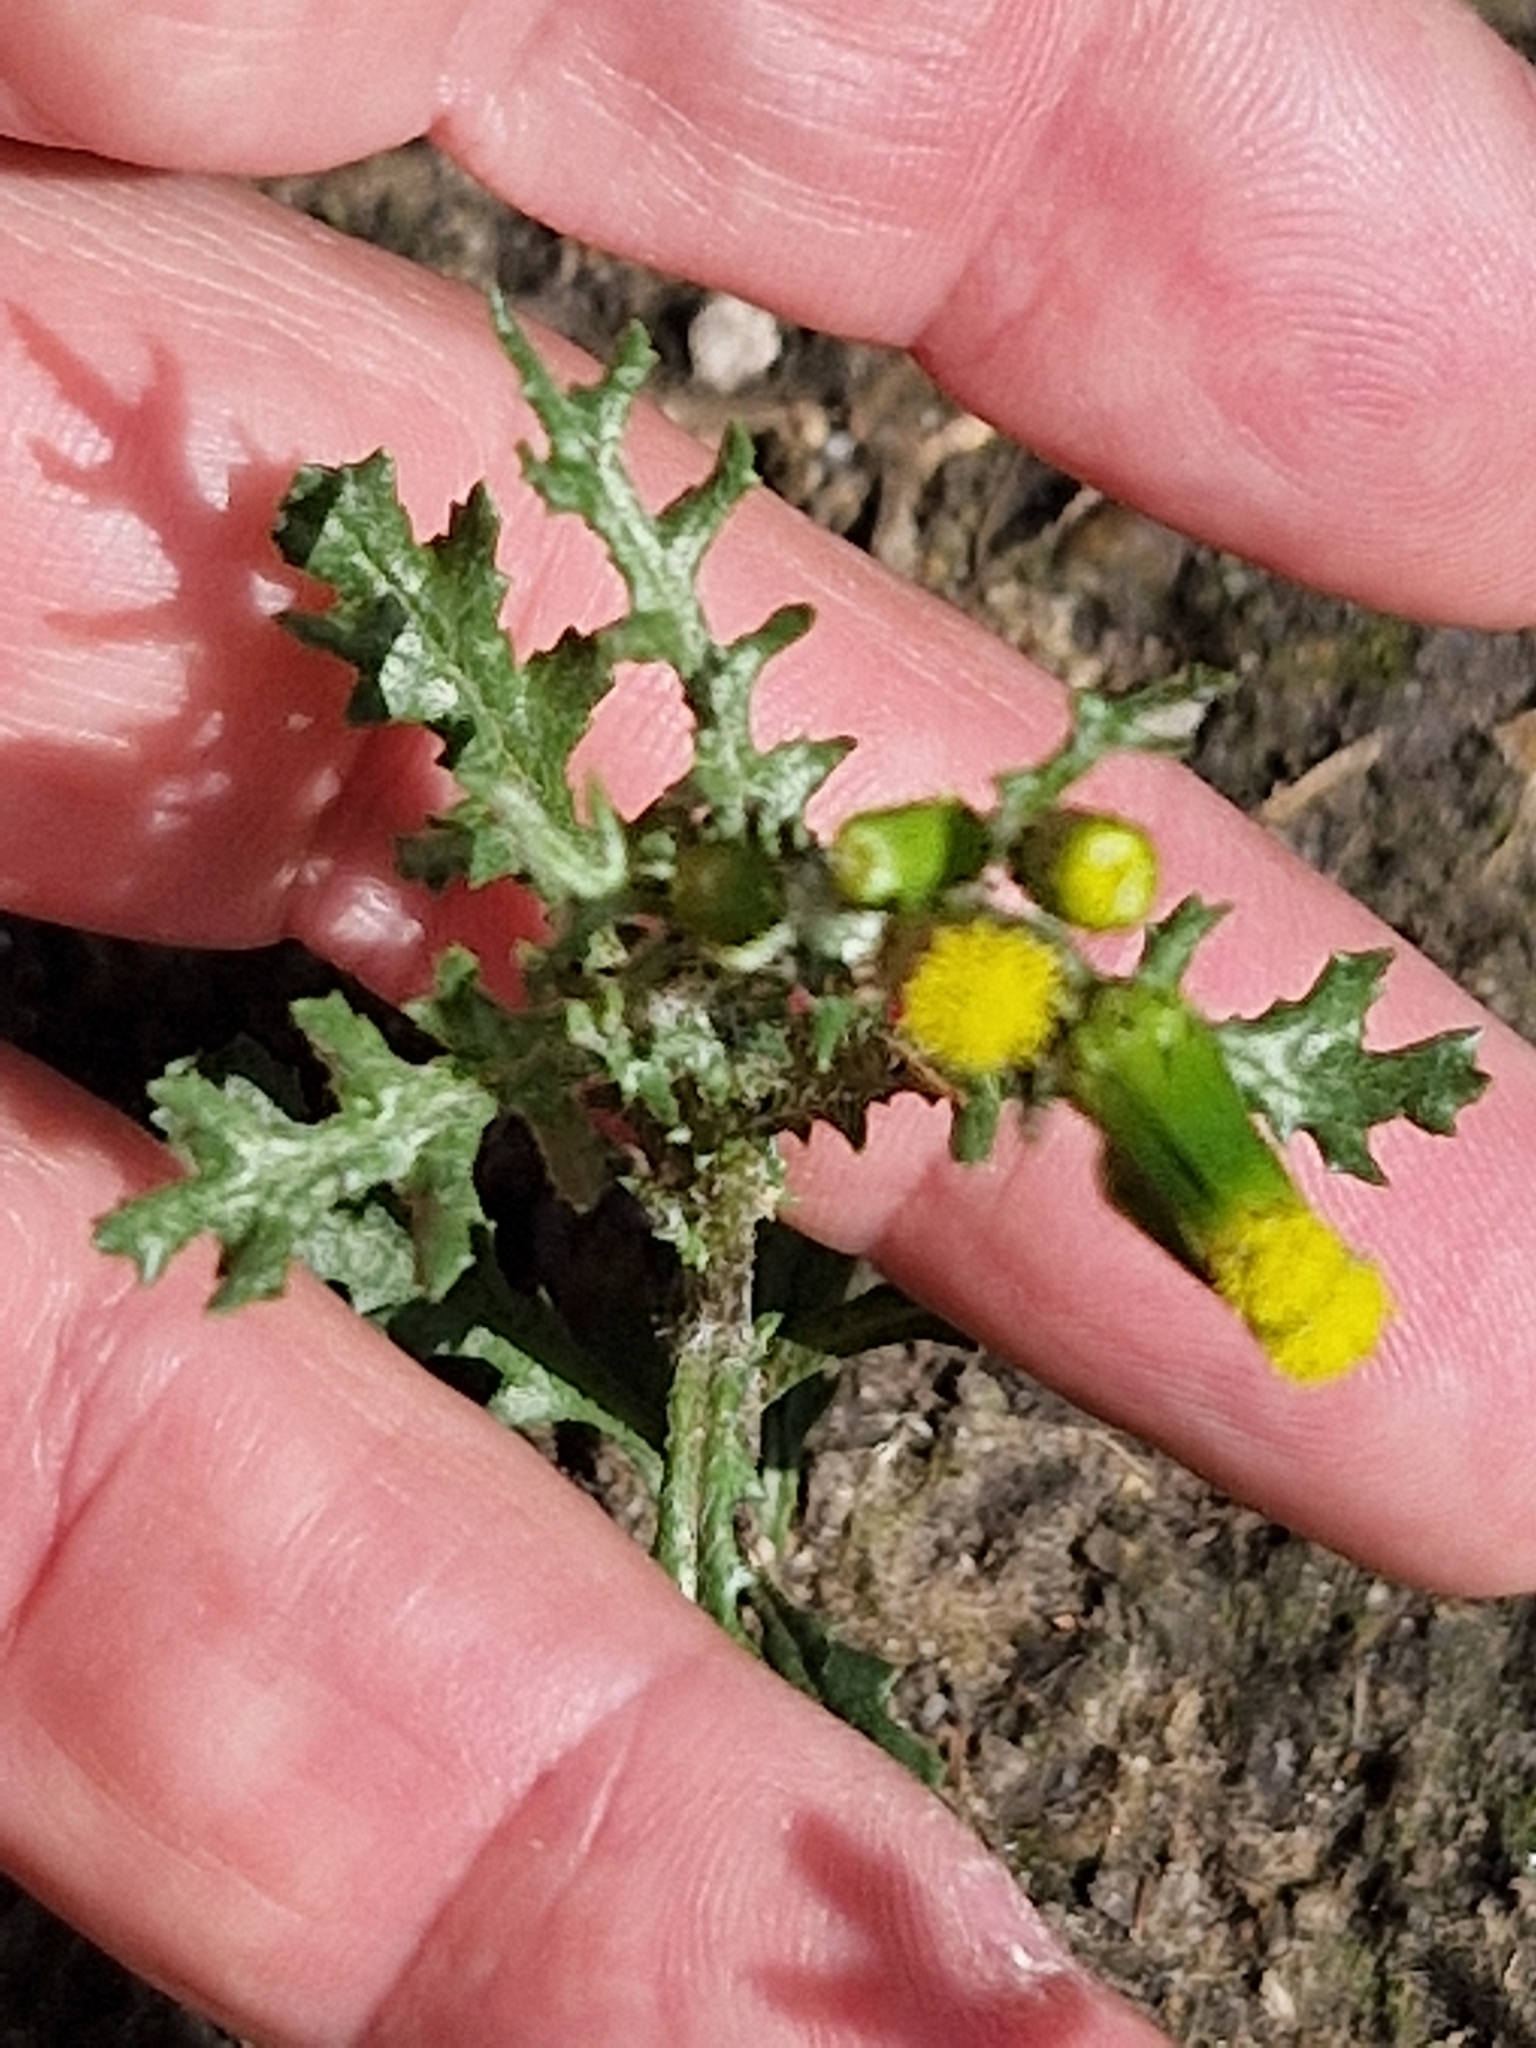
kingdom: Plantae
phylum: Tracheophyta
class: Magnoliopsida
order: Asterales
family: Asteraceae
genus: Senecio
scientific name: Senecio vulgaris
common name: Old-man-in-the-spring
